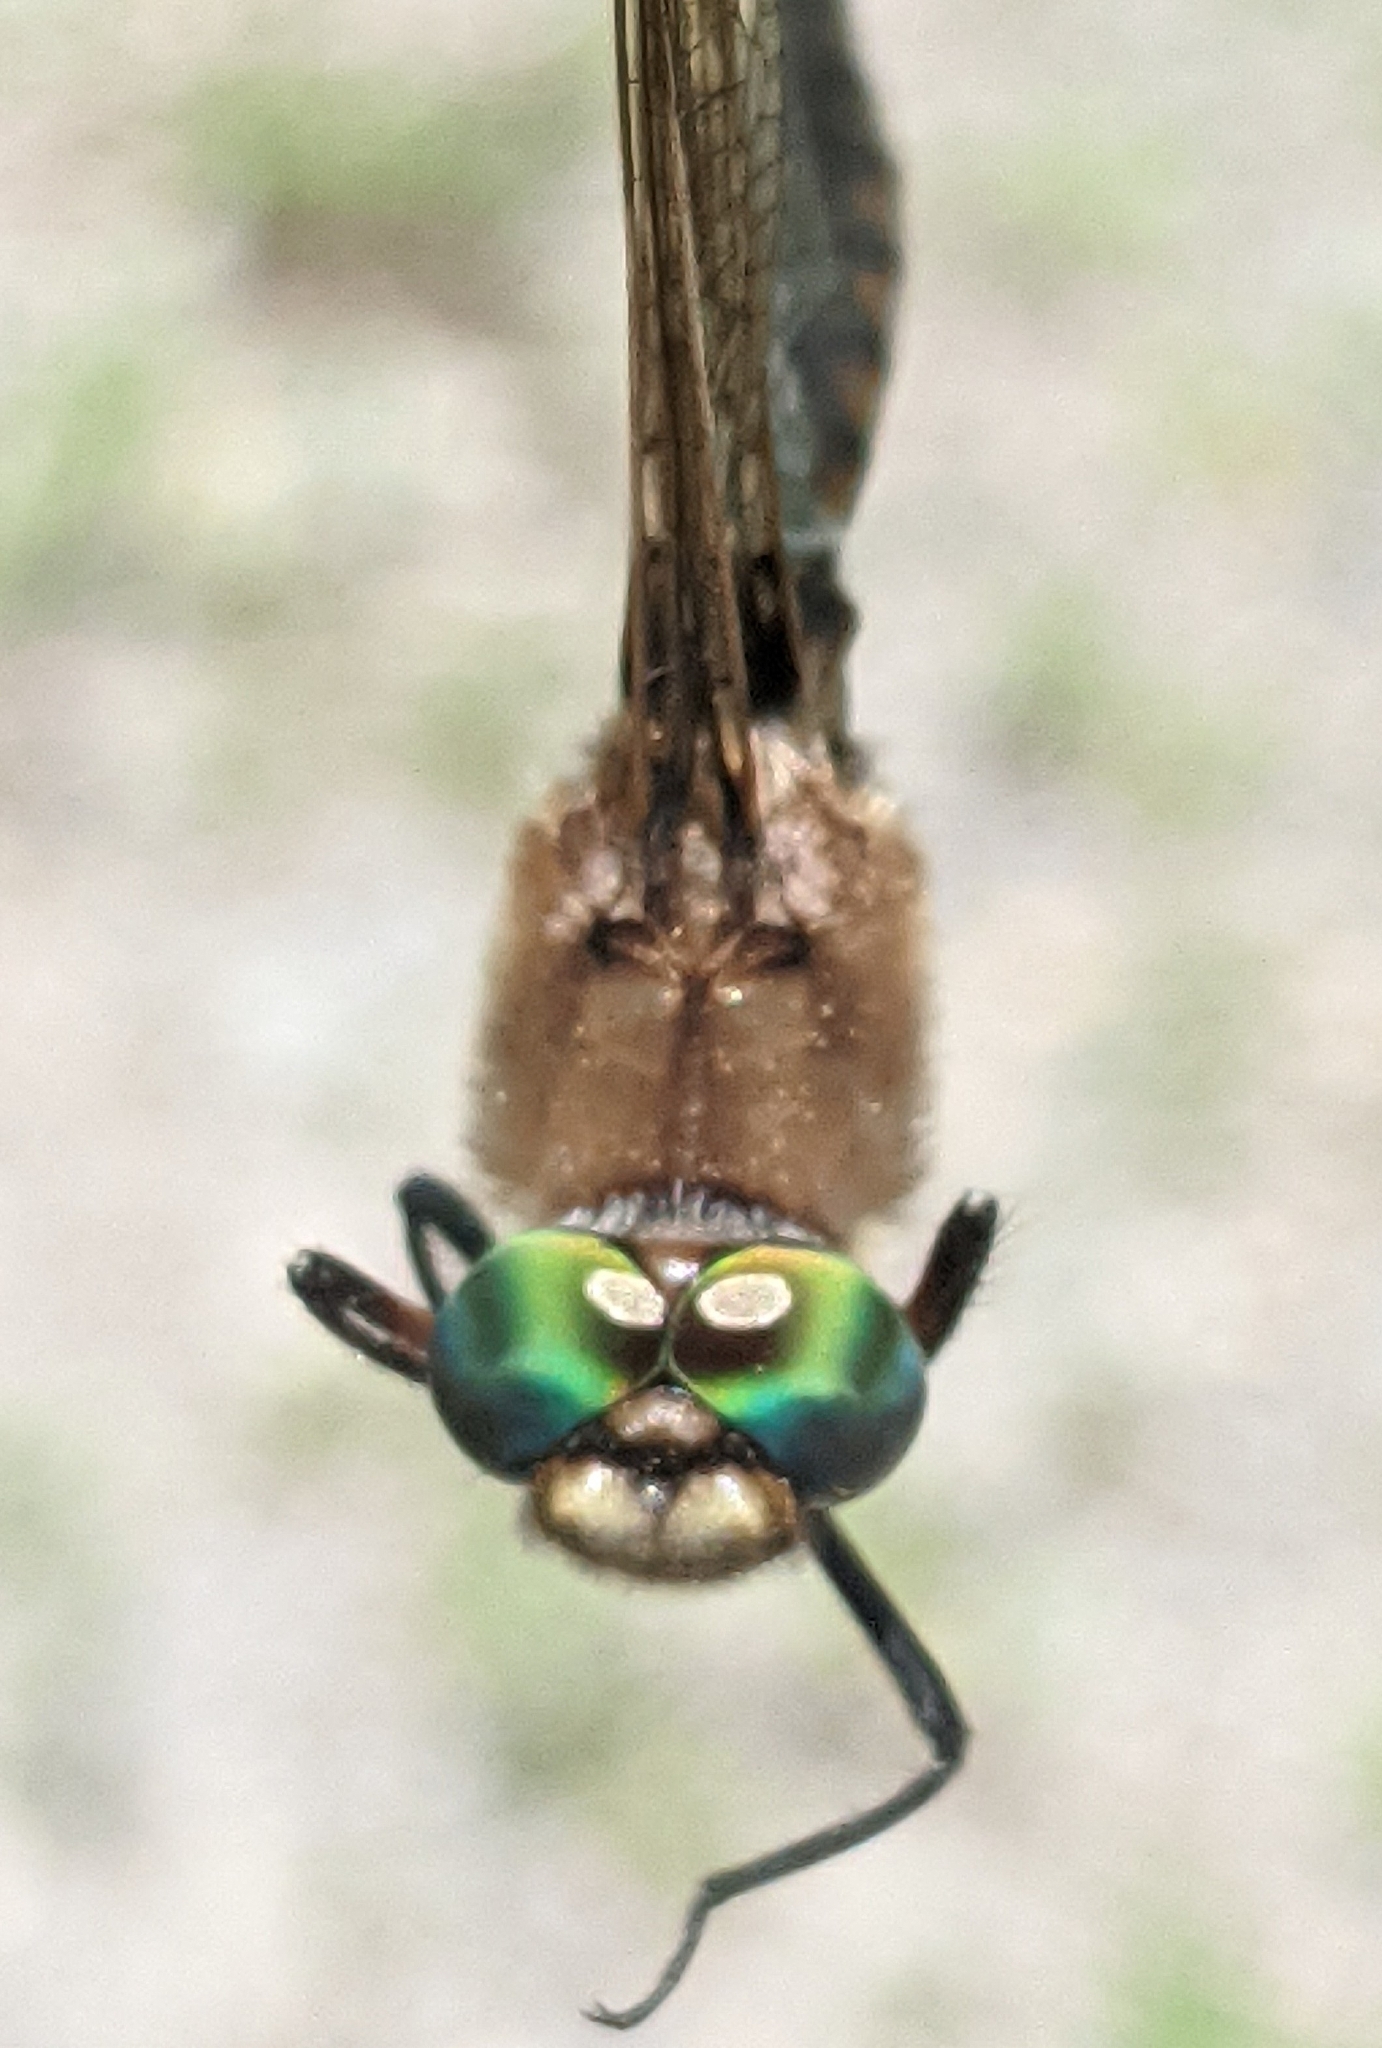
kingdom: Animalia
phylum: Arthropoda
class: Insecta
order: Odonata
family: Corduliidae
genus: Epitheca
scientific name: Epitheca canis
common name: Beaverpond baskettail
